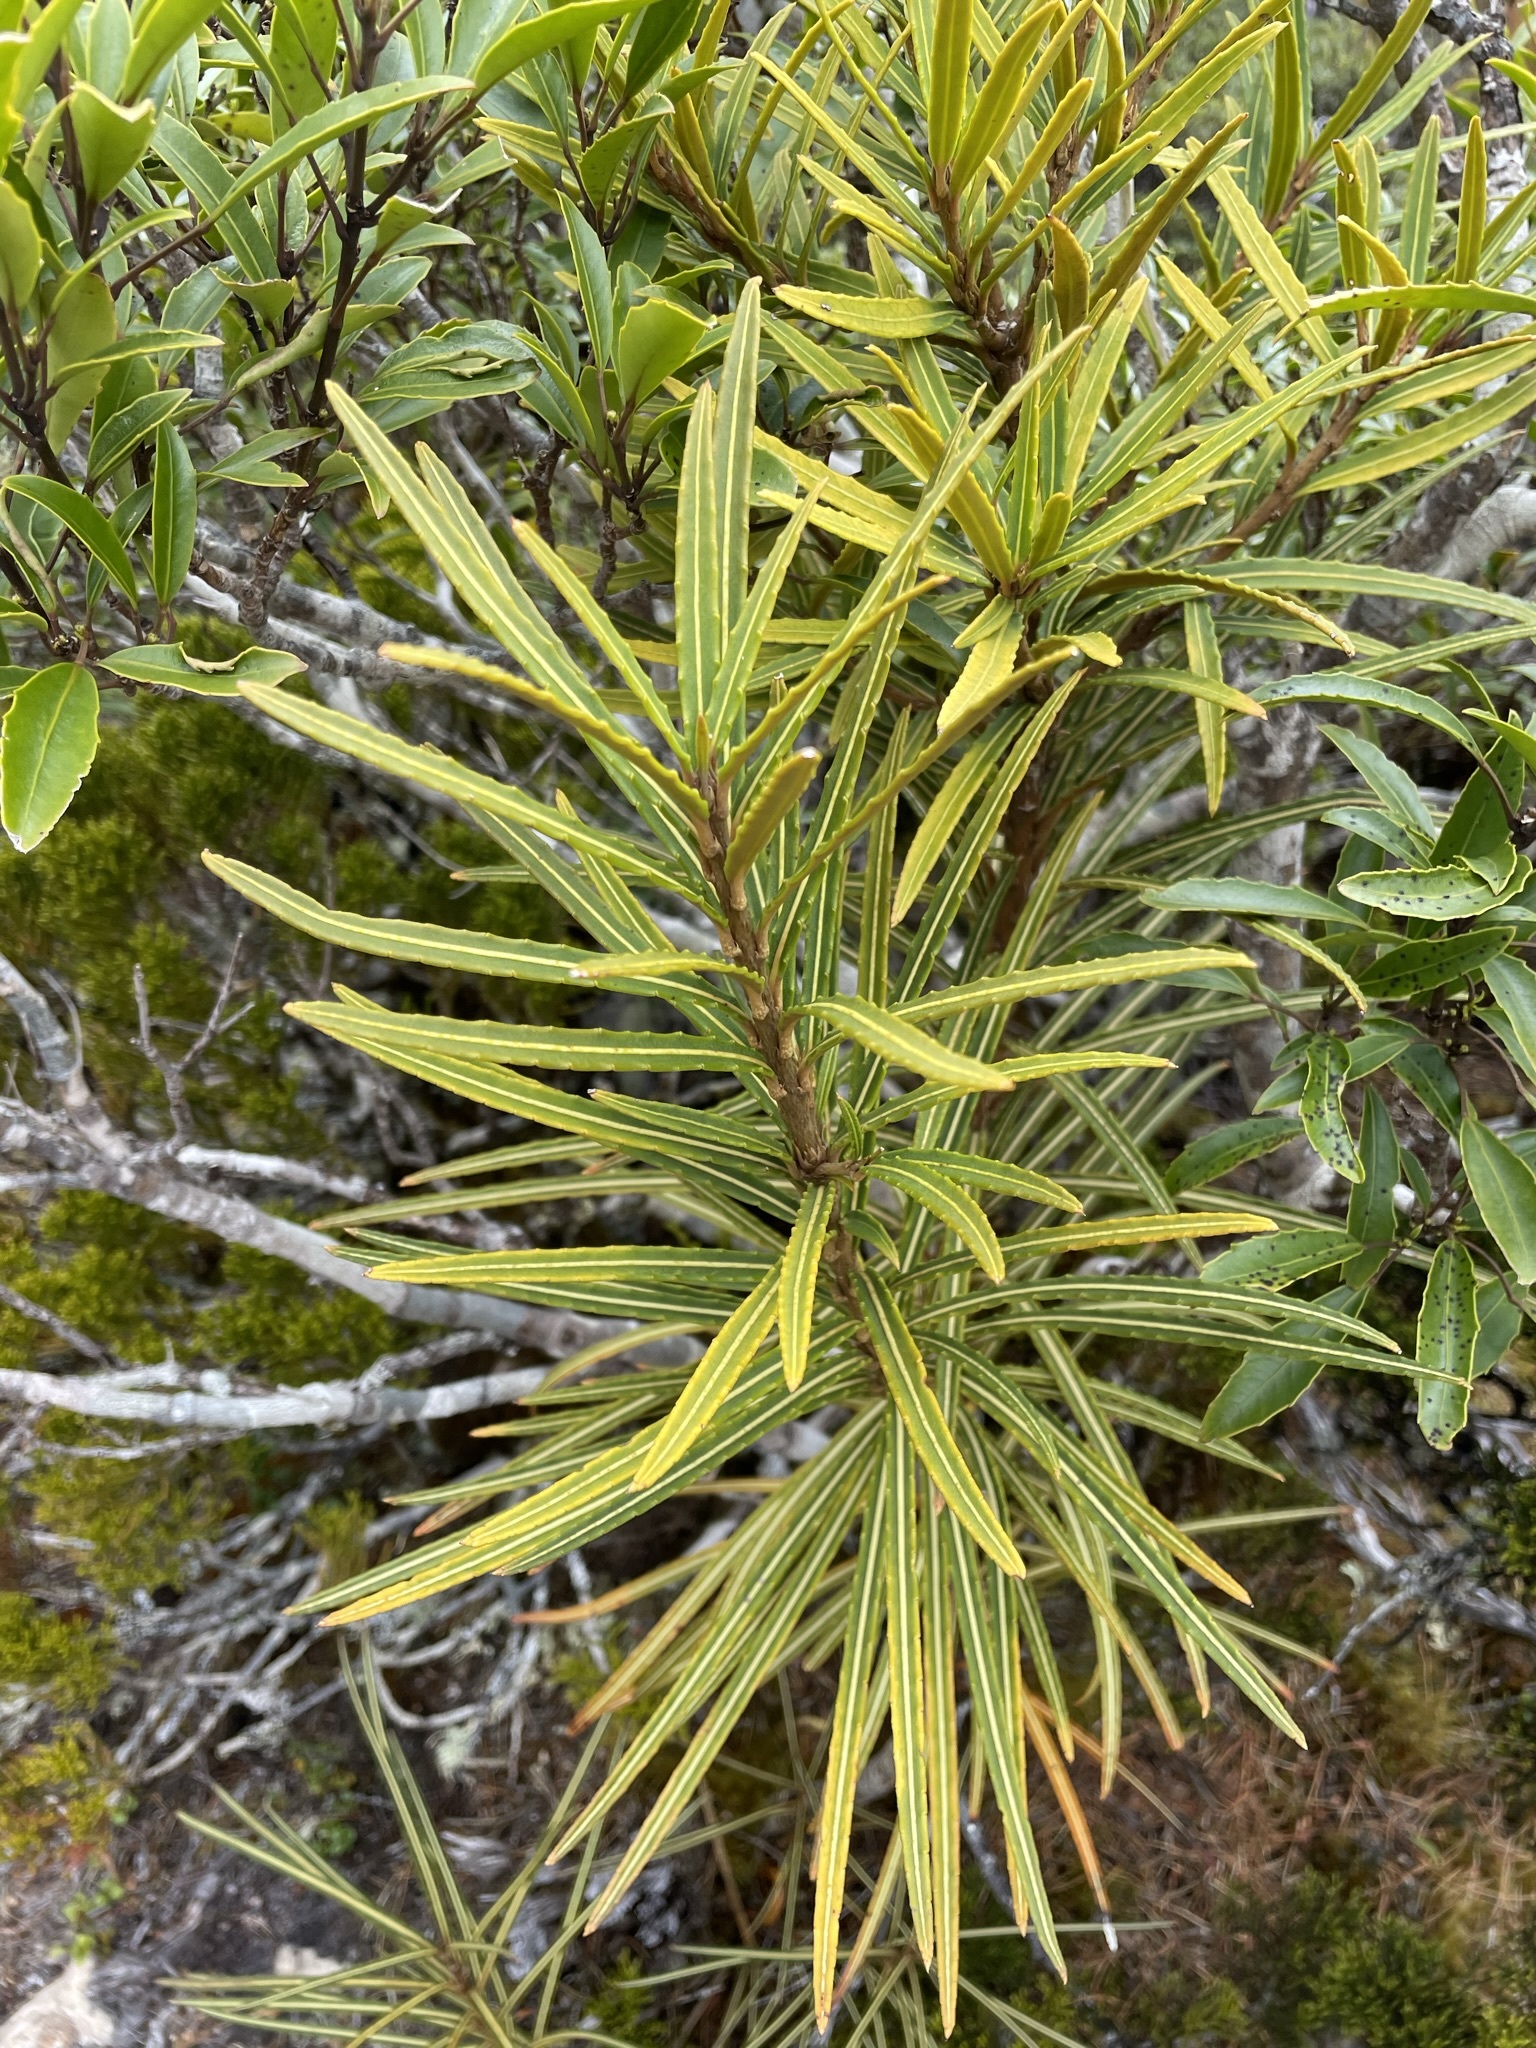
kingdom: Plantae
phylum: Tracheophyta
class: Magnoliopsida
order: Apiales
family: Araliaceae
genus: Pseudopanax
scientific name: Pseudopanax linearis
